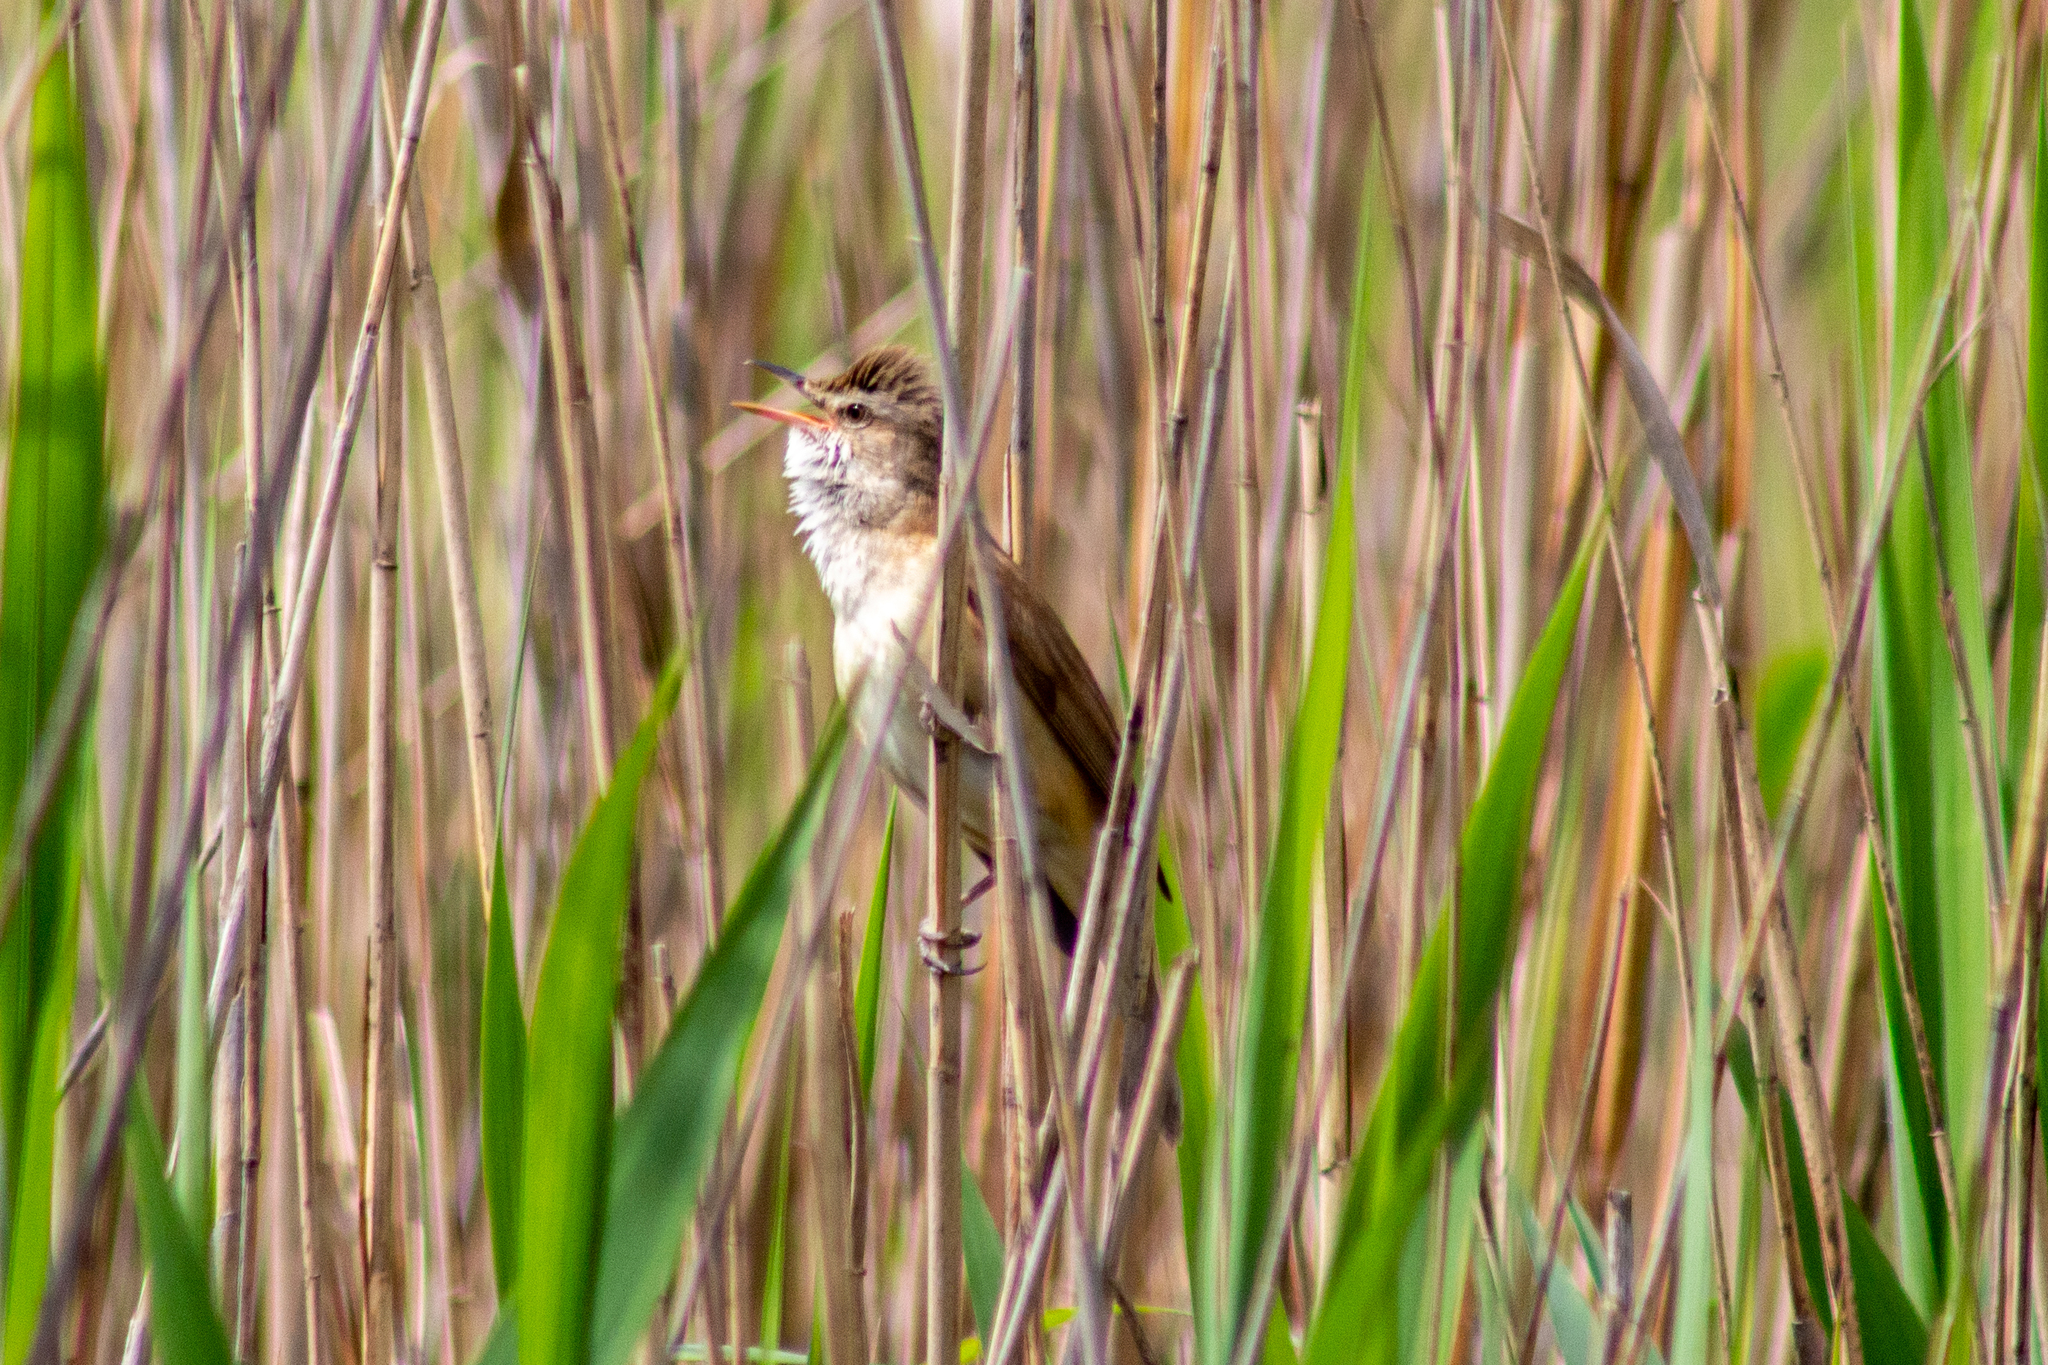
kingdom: Animalia
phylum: Chordata
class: Aves
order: Passeriformes
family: Acrocephalidae
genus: Acrocephalus
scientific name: Acrocephalus arundinaceus
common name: Great reed warbler
